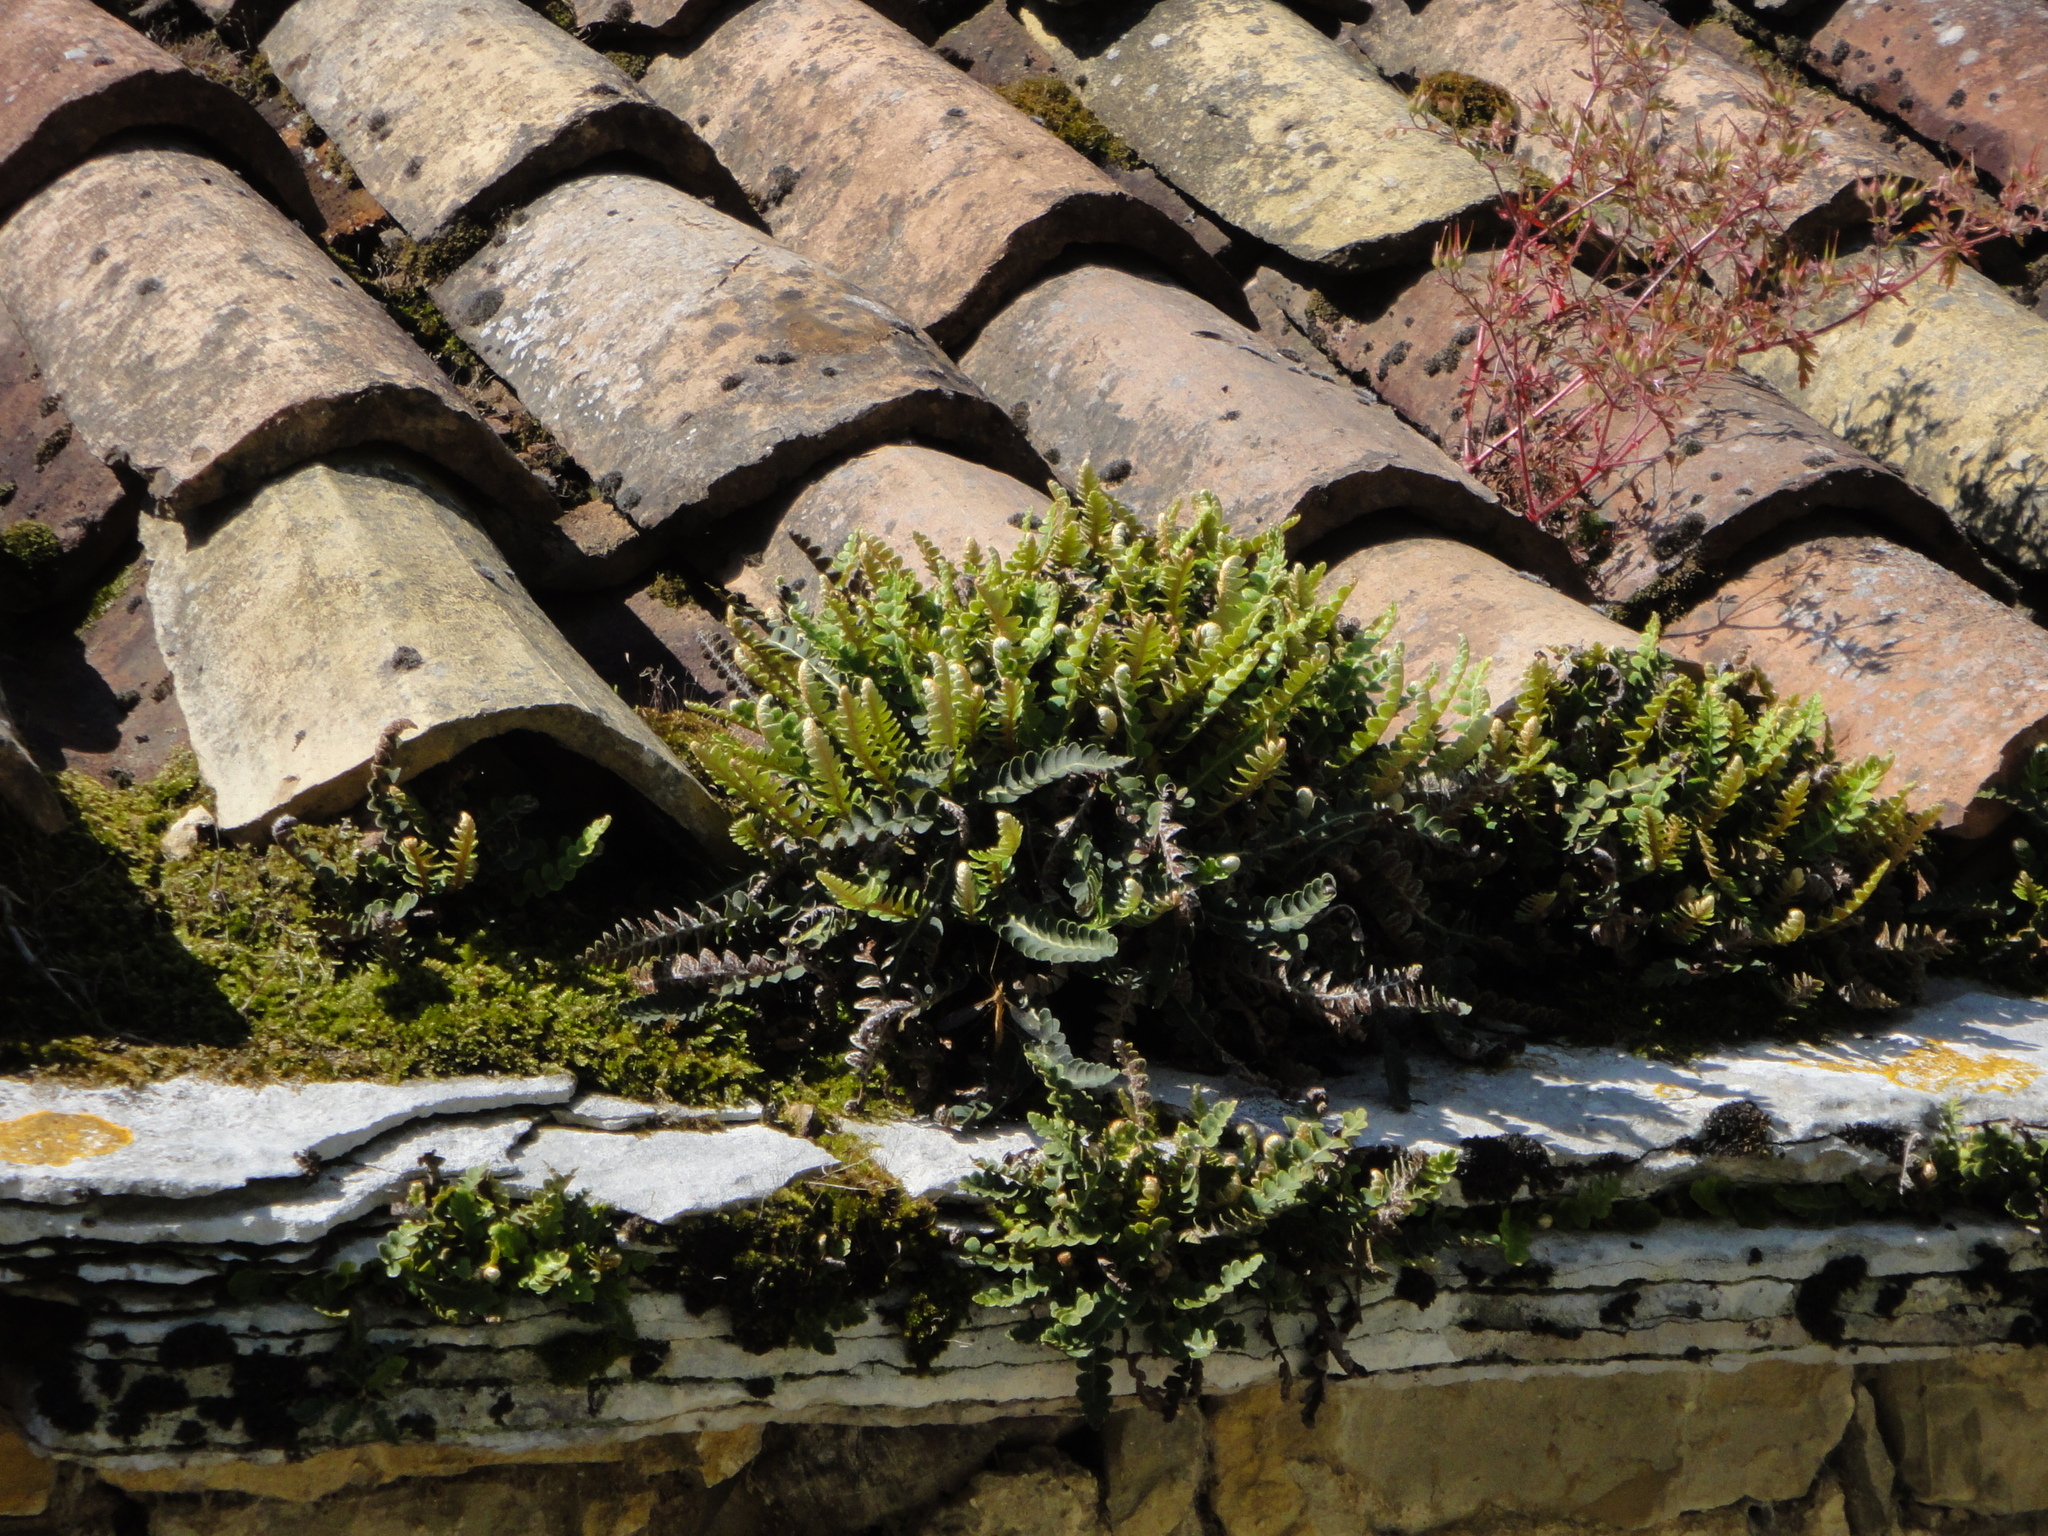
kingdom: Plantae
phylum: Tracheophyta
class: Polypodiopsida
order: Polypodiales
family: Aspleniaceae
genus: Asplenium
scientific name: Asplenium ceterach
